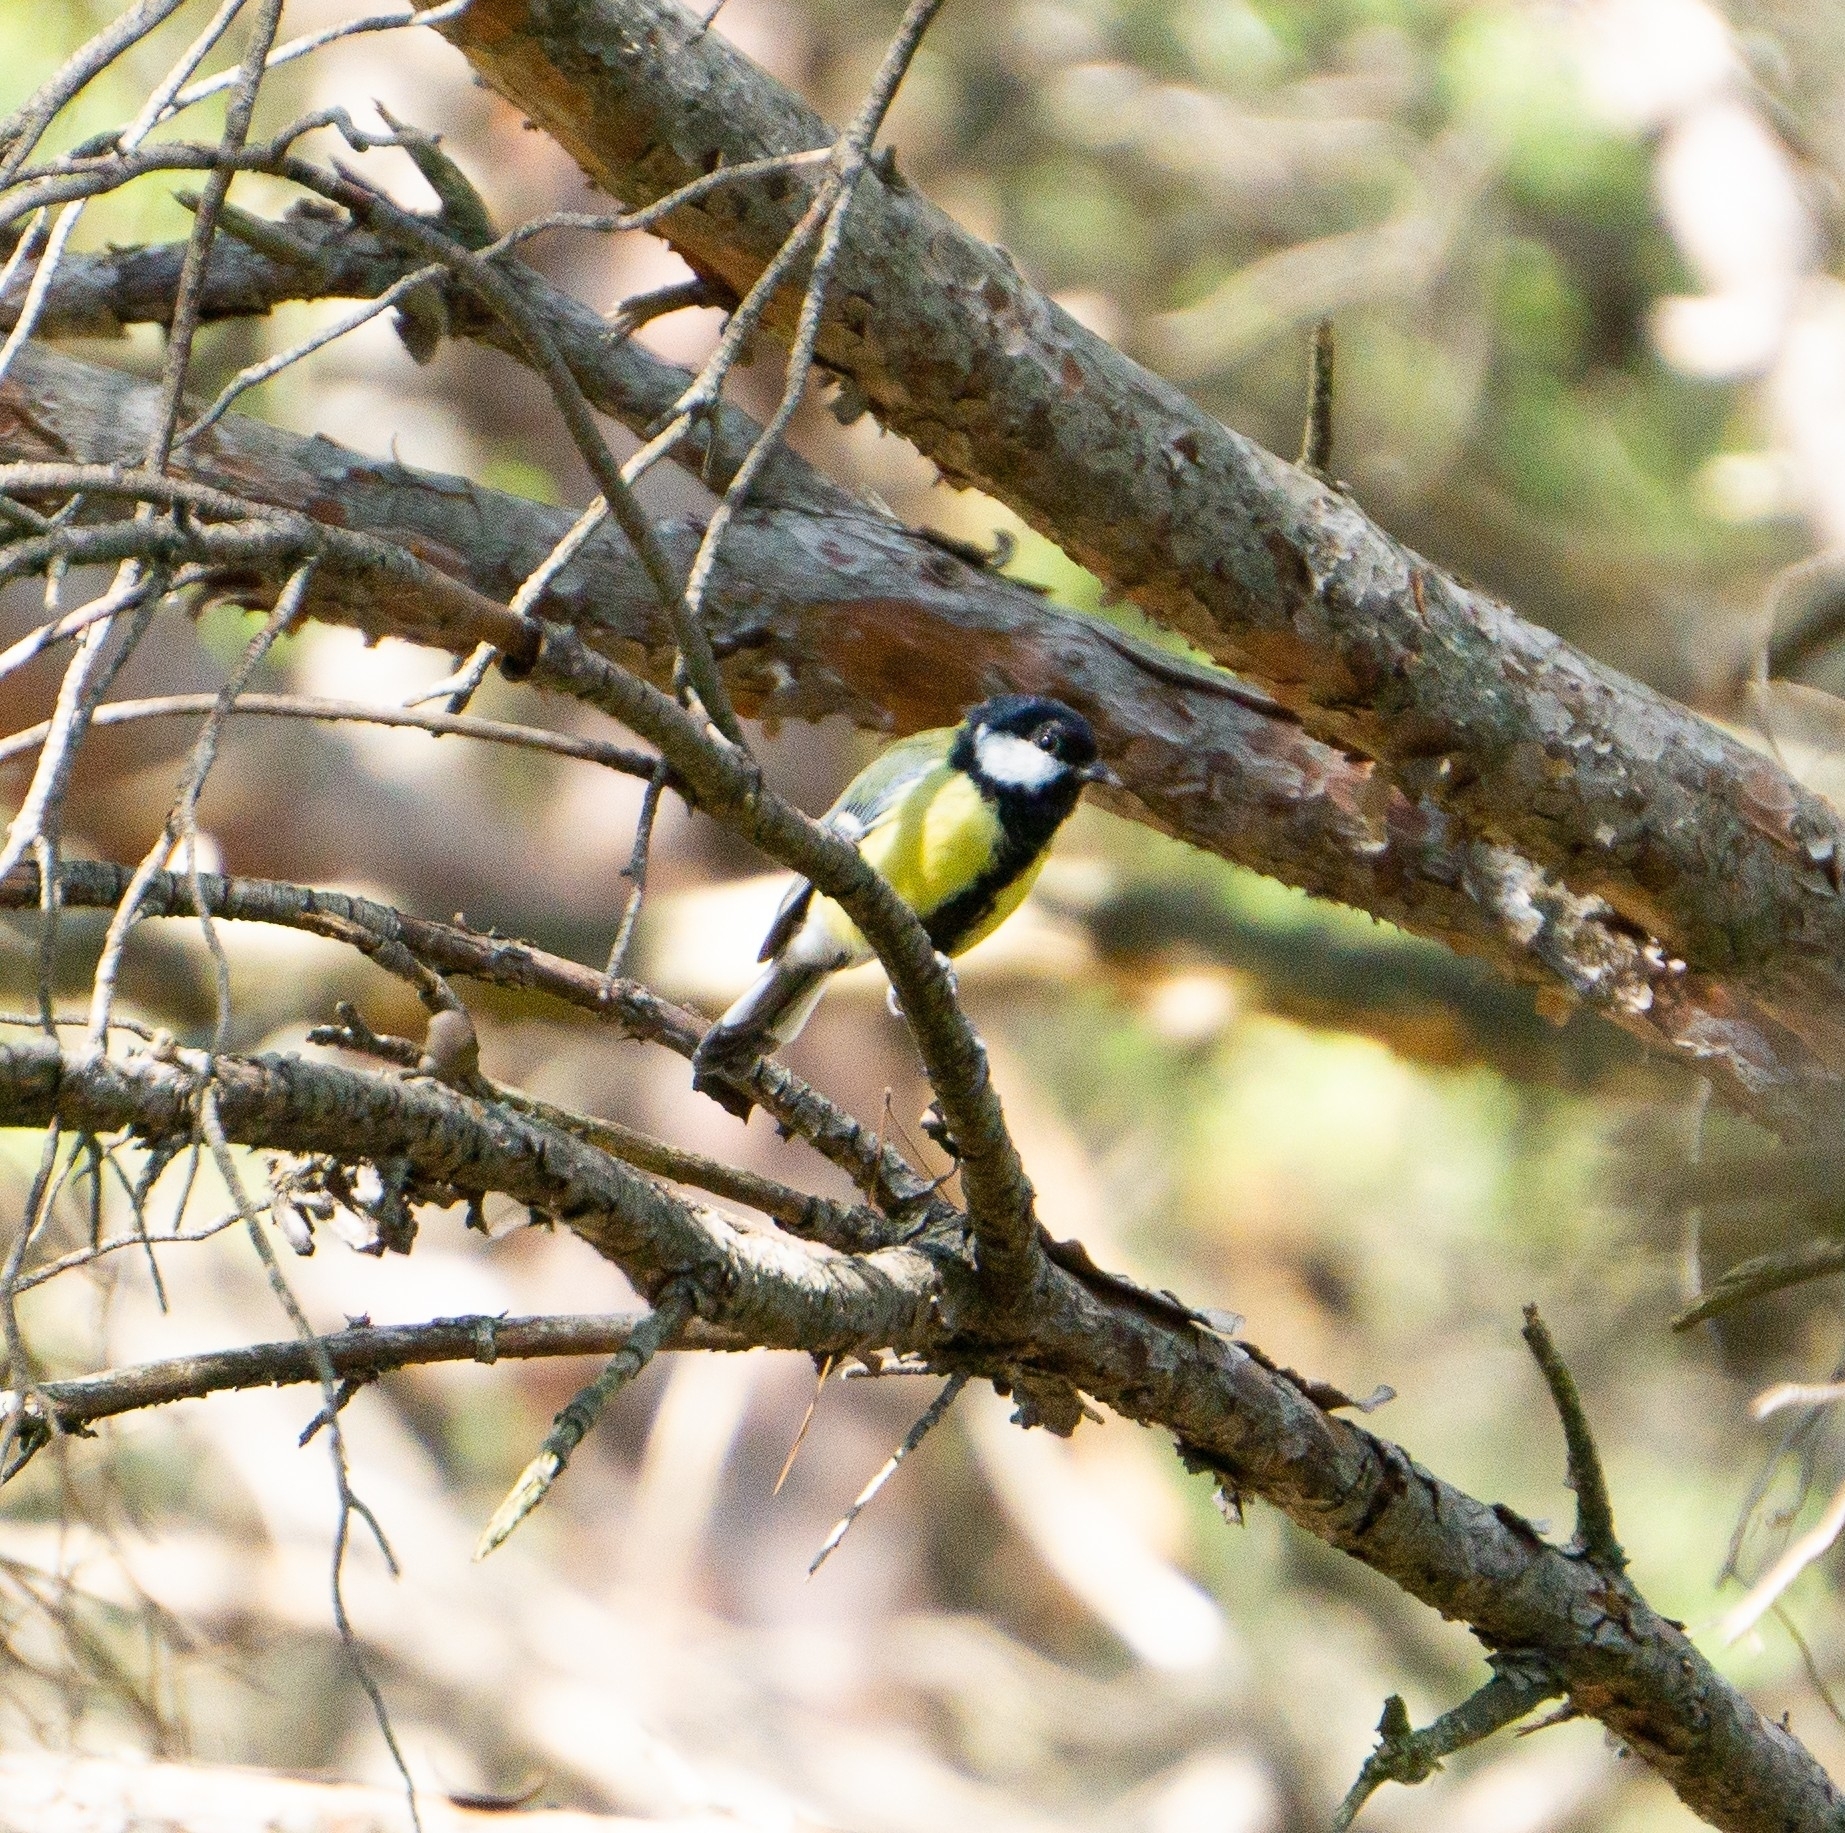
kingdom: Animalia
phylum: Chordata
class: Aves
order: Passeriformes
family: Paridae
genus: Parus
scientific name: Parus major
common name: Great tit
